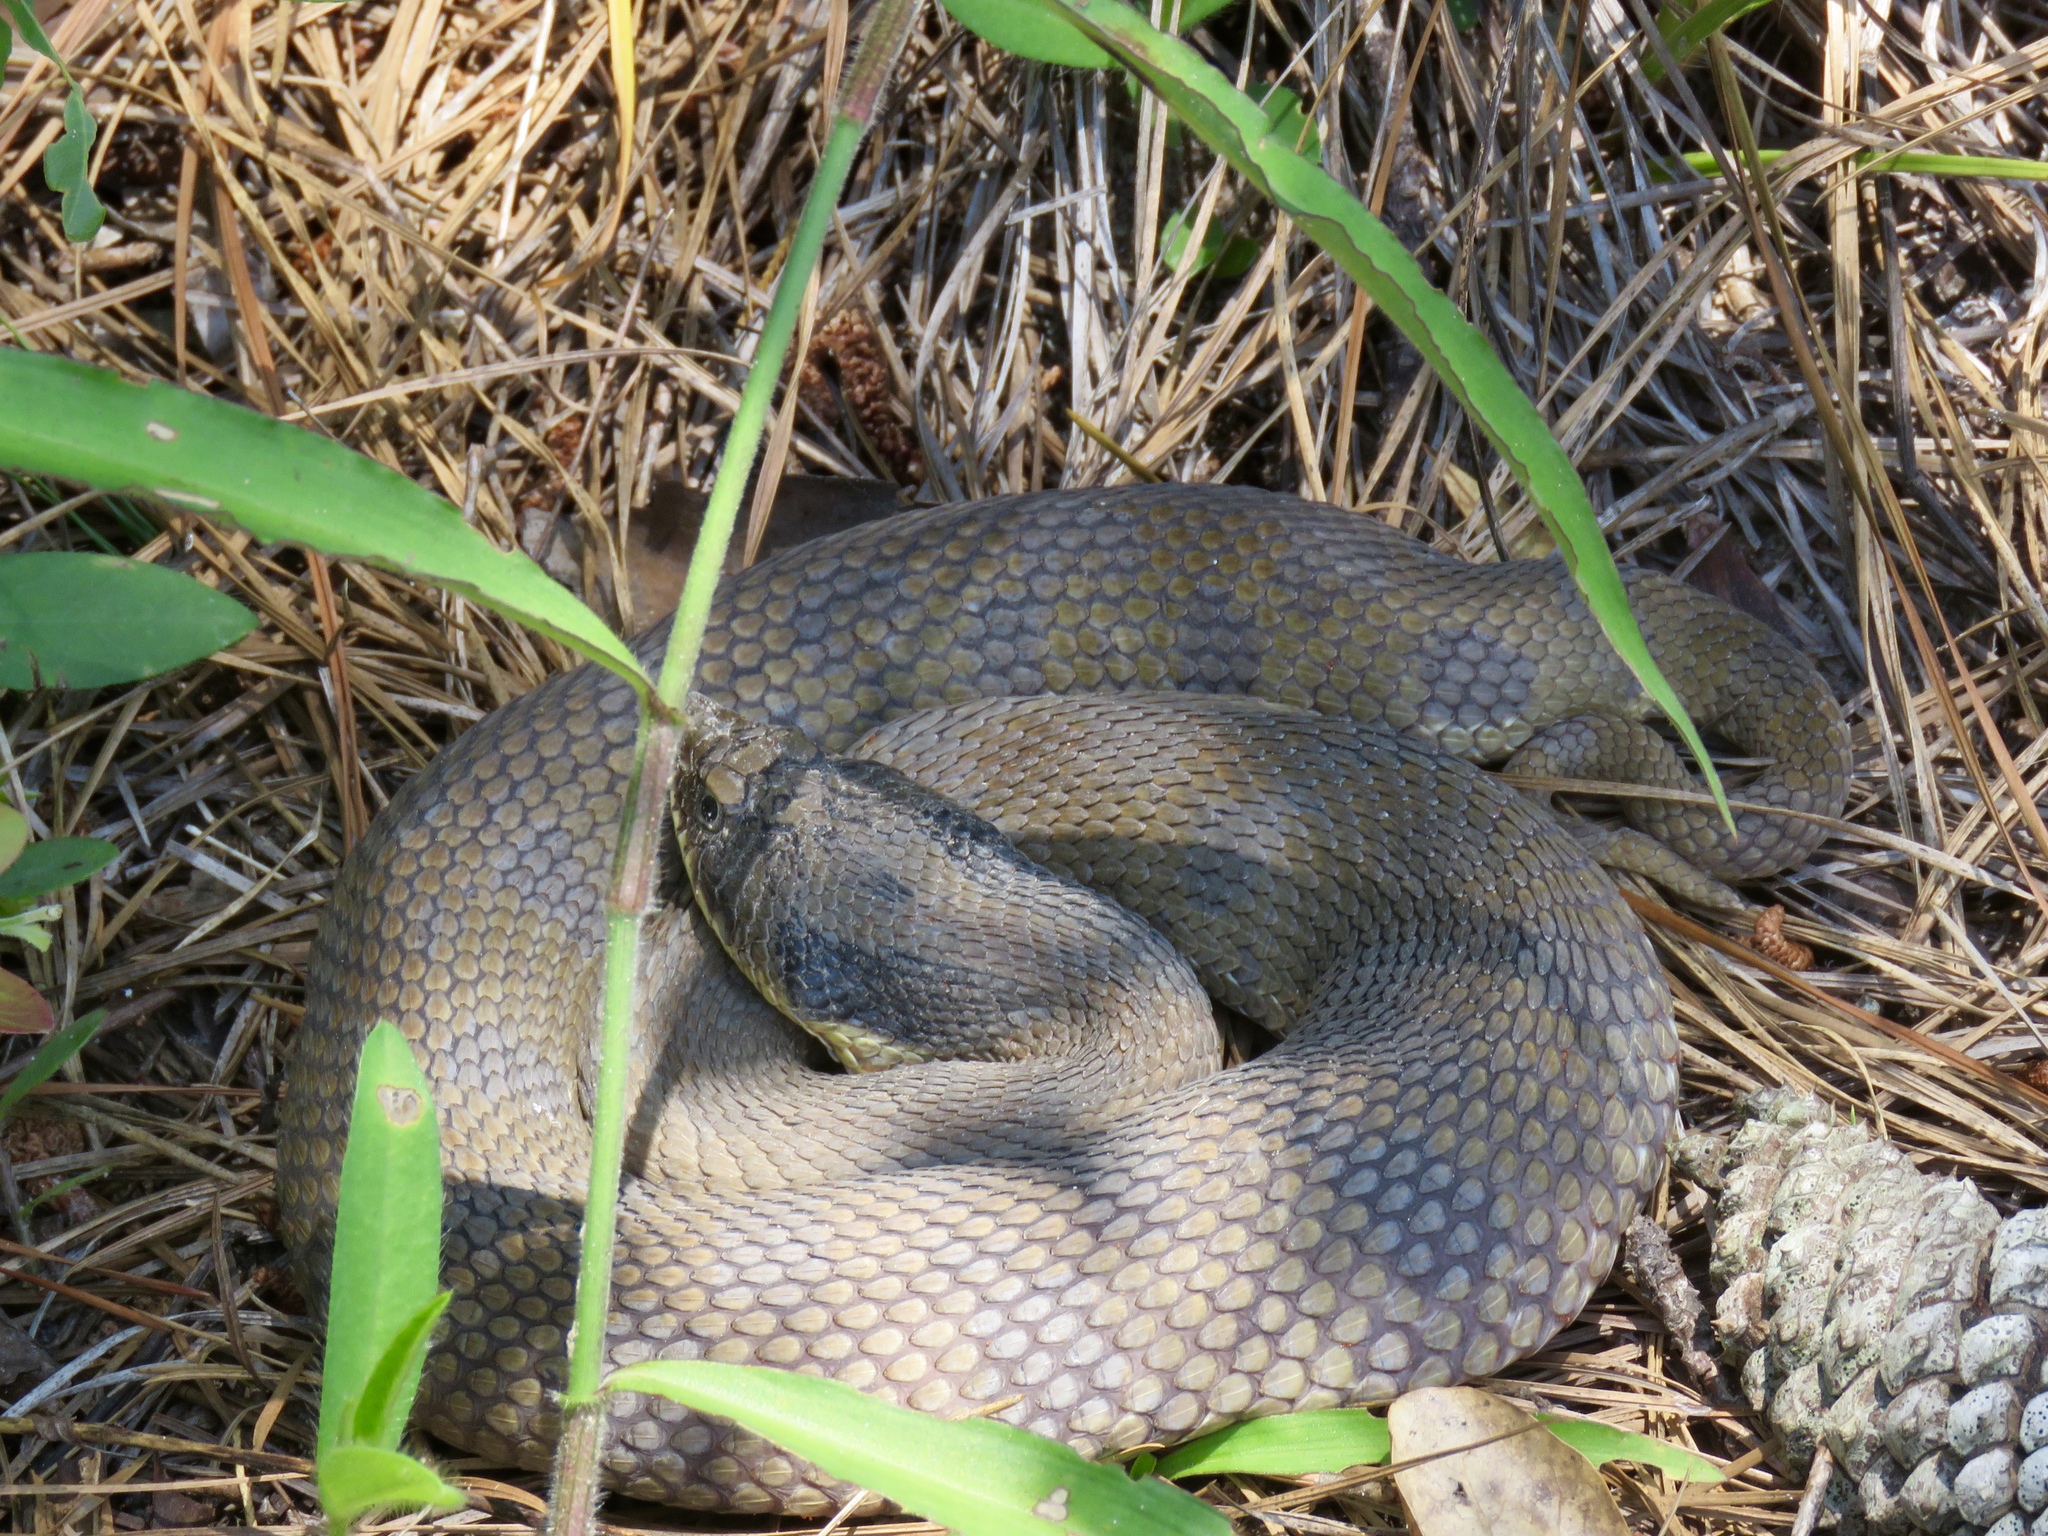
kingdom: Animalia
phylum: Chordata
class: Squamata
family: Colubridae
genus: Heterodon
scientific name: Heterodon platirhinos
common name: Eastern hognose snake
